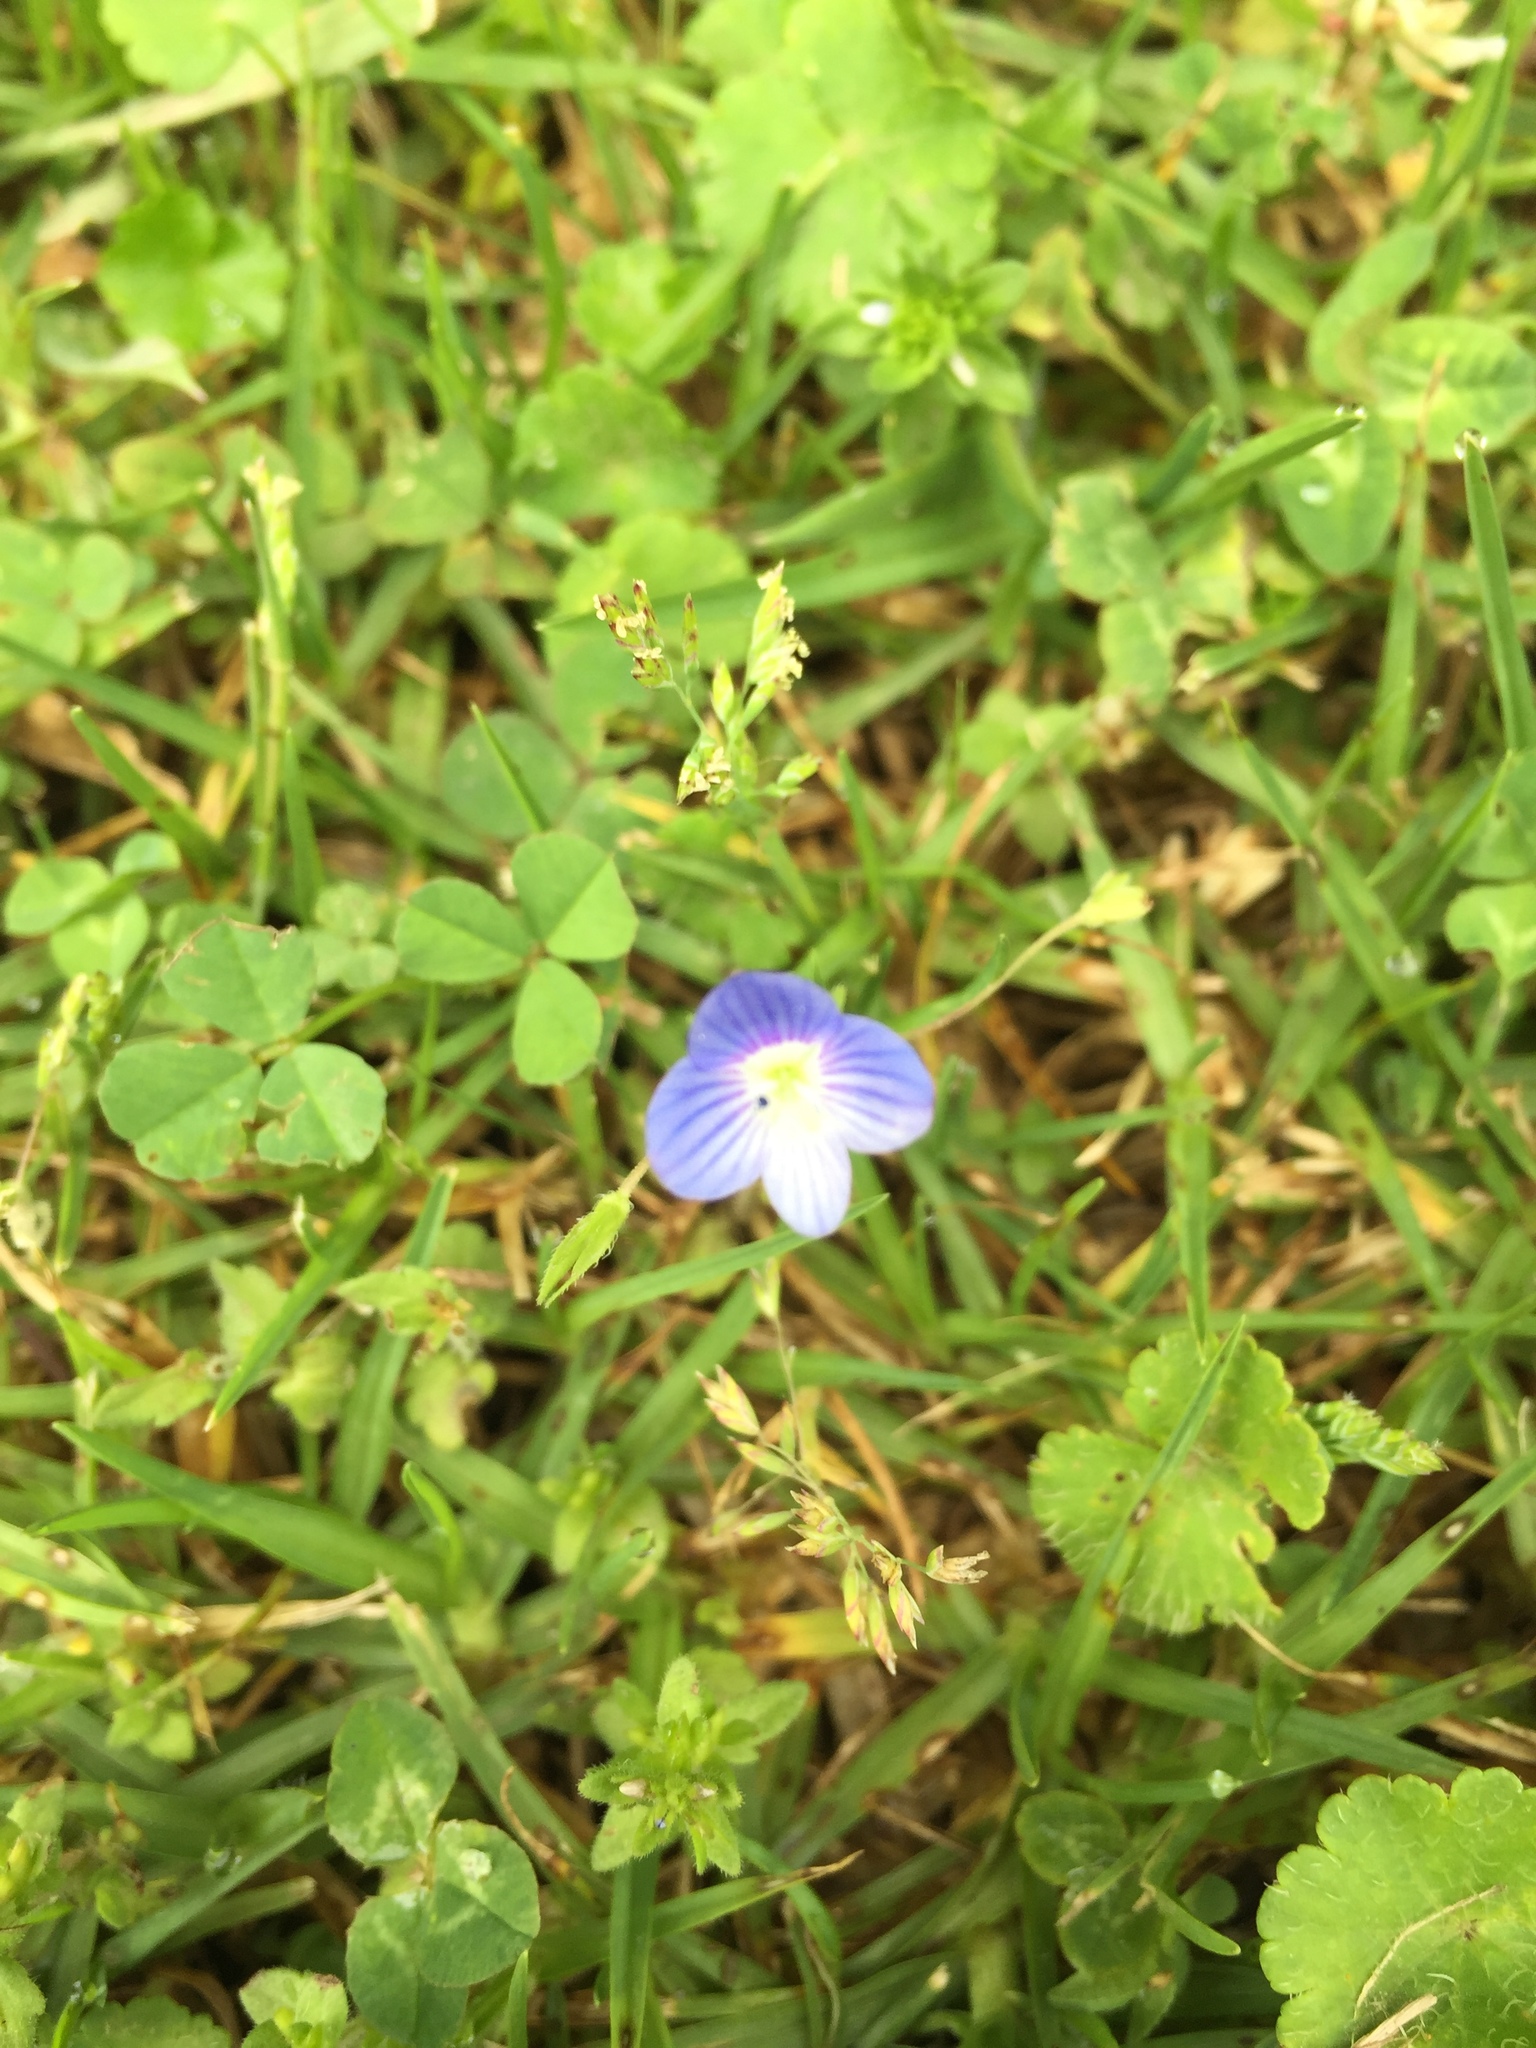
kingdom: Plantae
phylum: Tracheophyta
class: Magnoliopsida
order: Lamiales
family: Plantaginaceae
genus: Veronica
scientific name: Veronica persica
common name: Common field-speedwell
